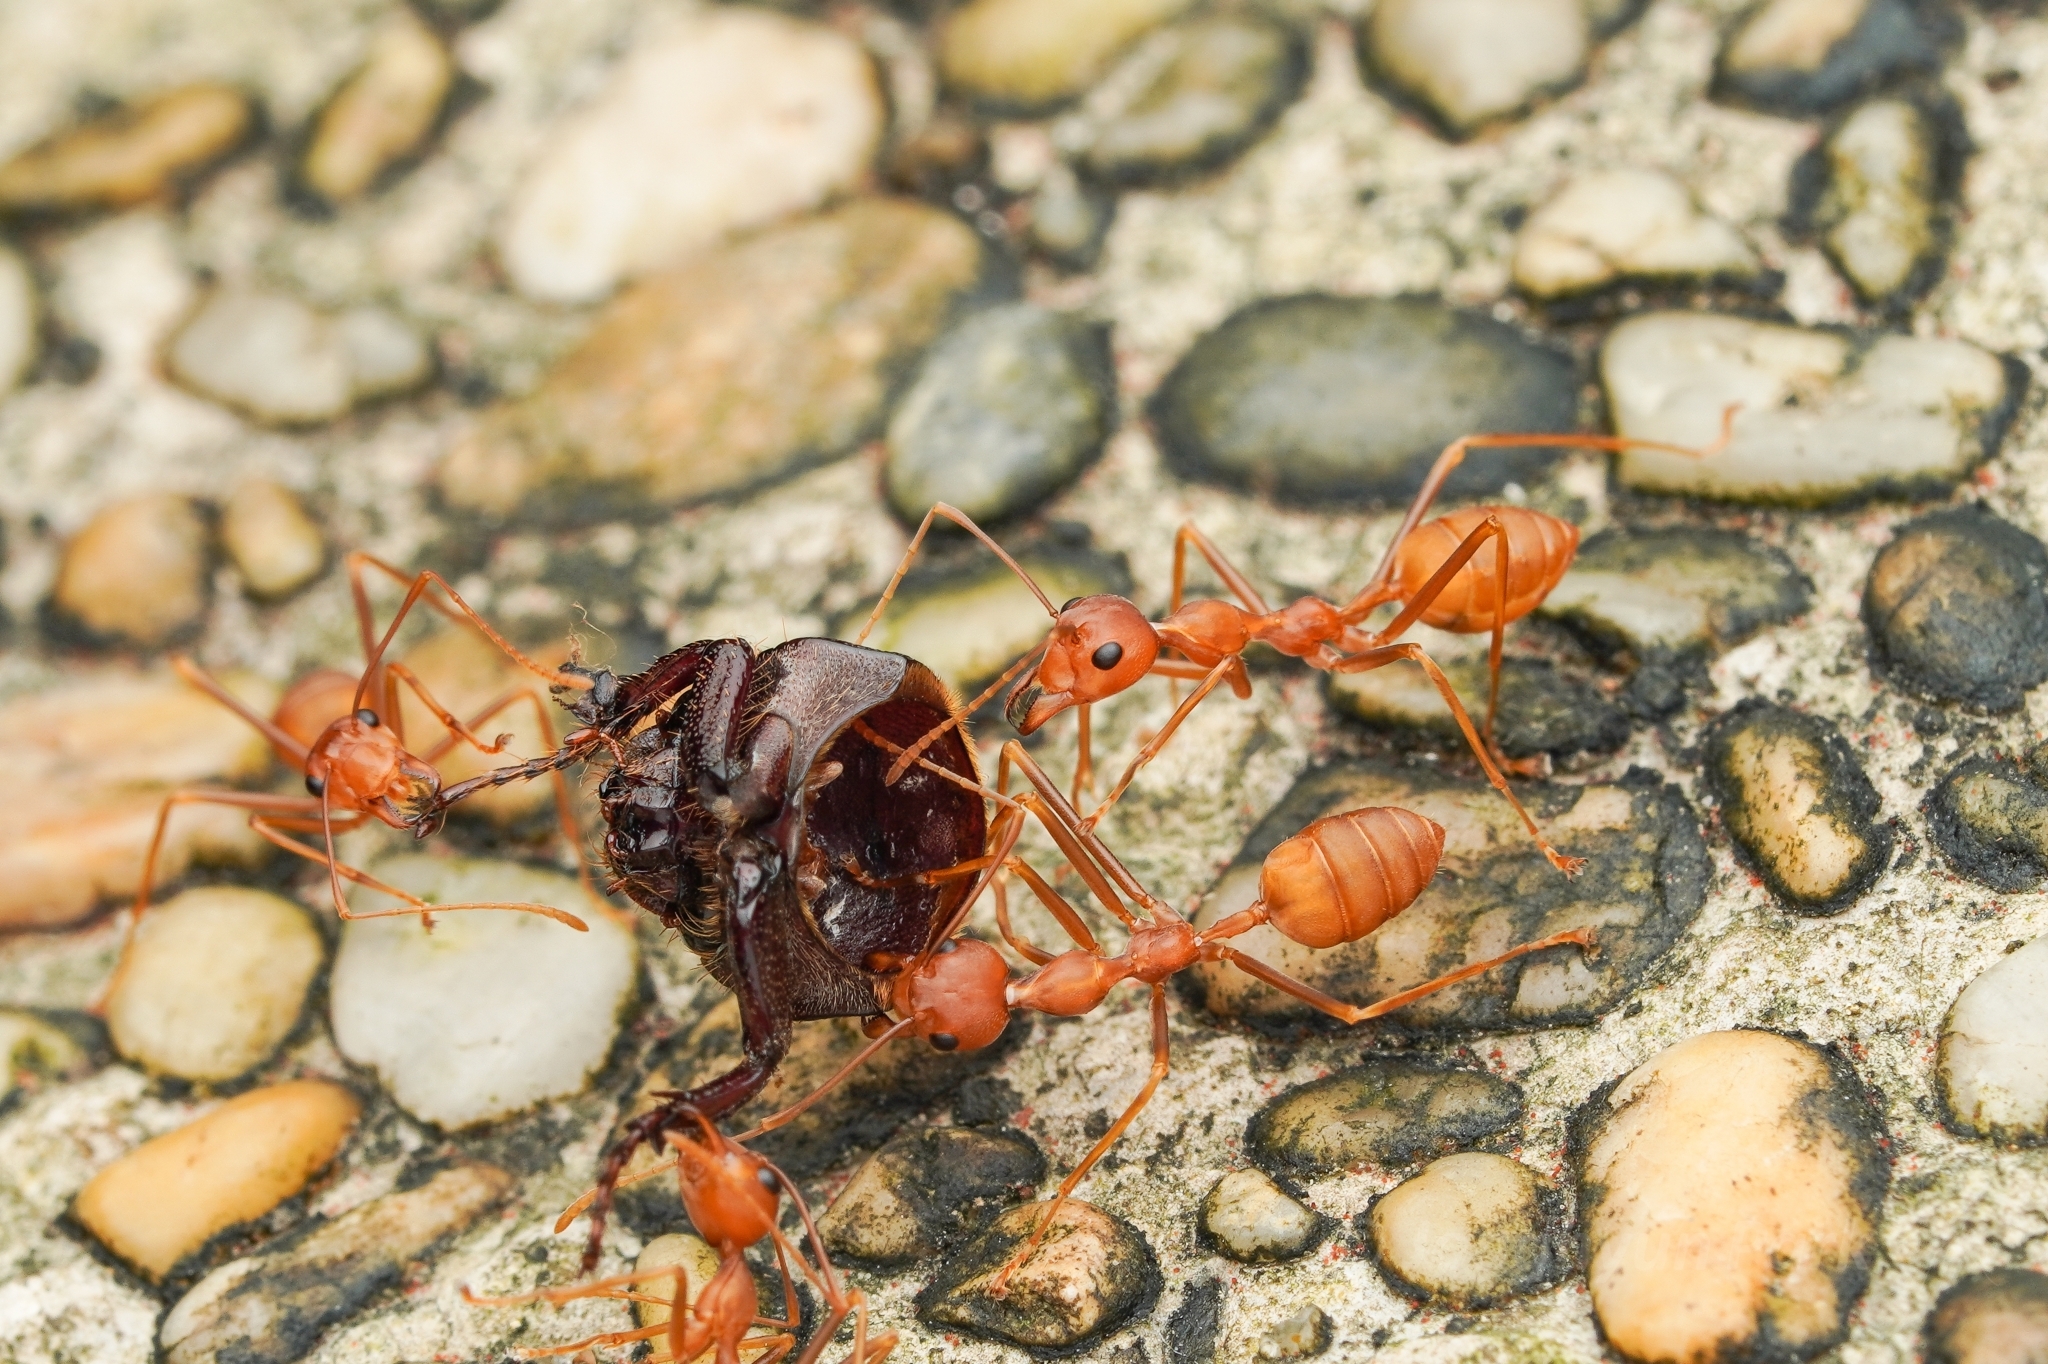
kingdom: Animalia
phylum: Arthropoda
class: Insecta
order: Hymenoptera
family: Formicidae
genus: Oecophylla
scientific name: Oecophylla smaragdina
